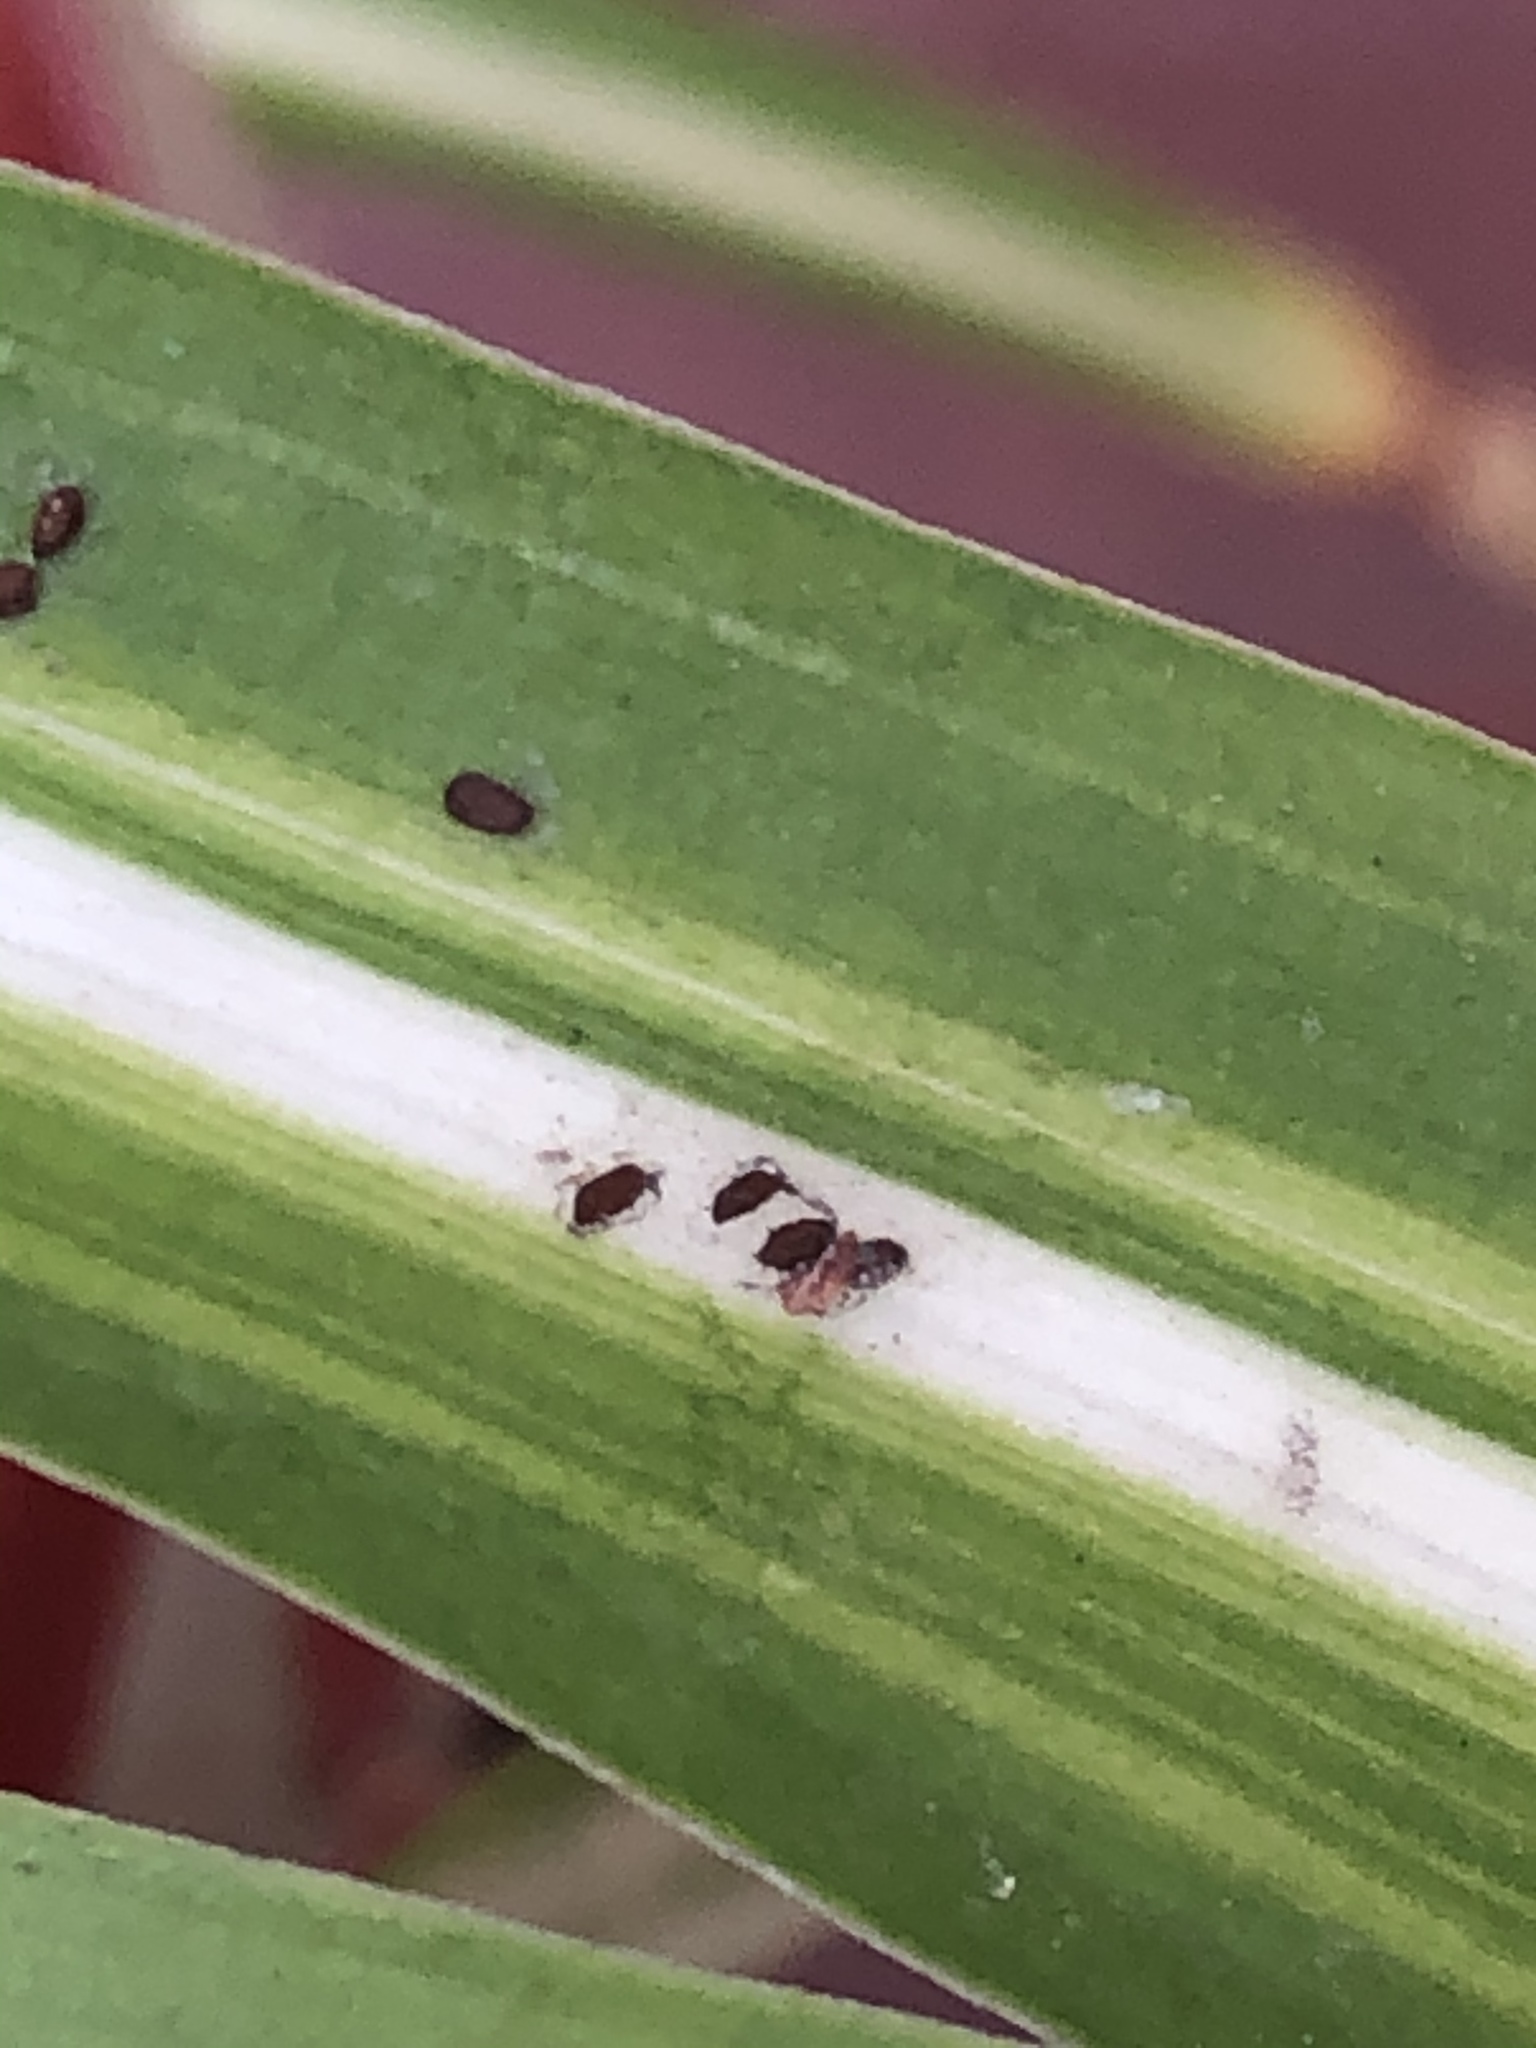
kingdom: Animalia
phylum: Arthropoda
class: Arachnida
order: Araneae
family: Salticidae
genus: Frigga
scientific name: Frigga crocuta
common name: Jumping spiders
